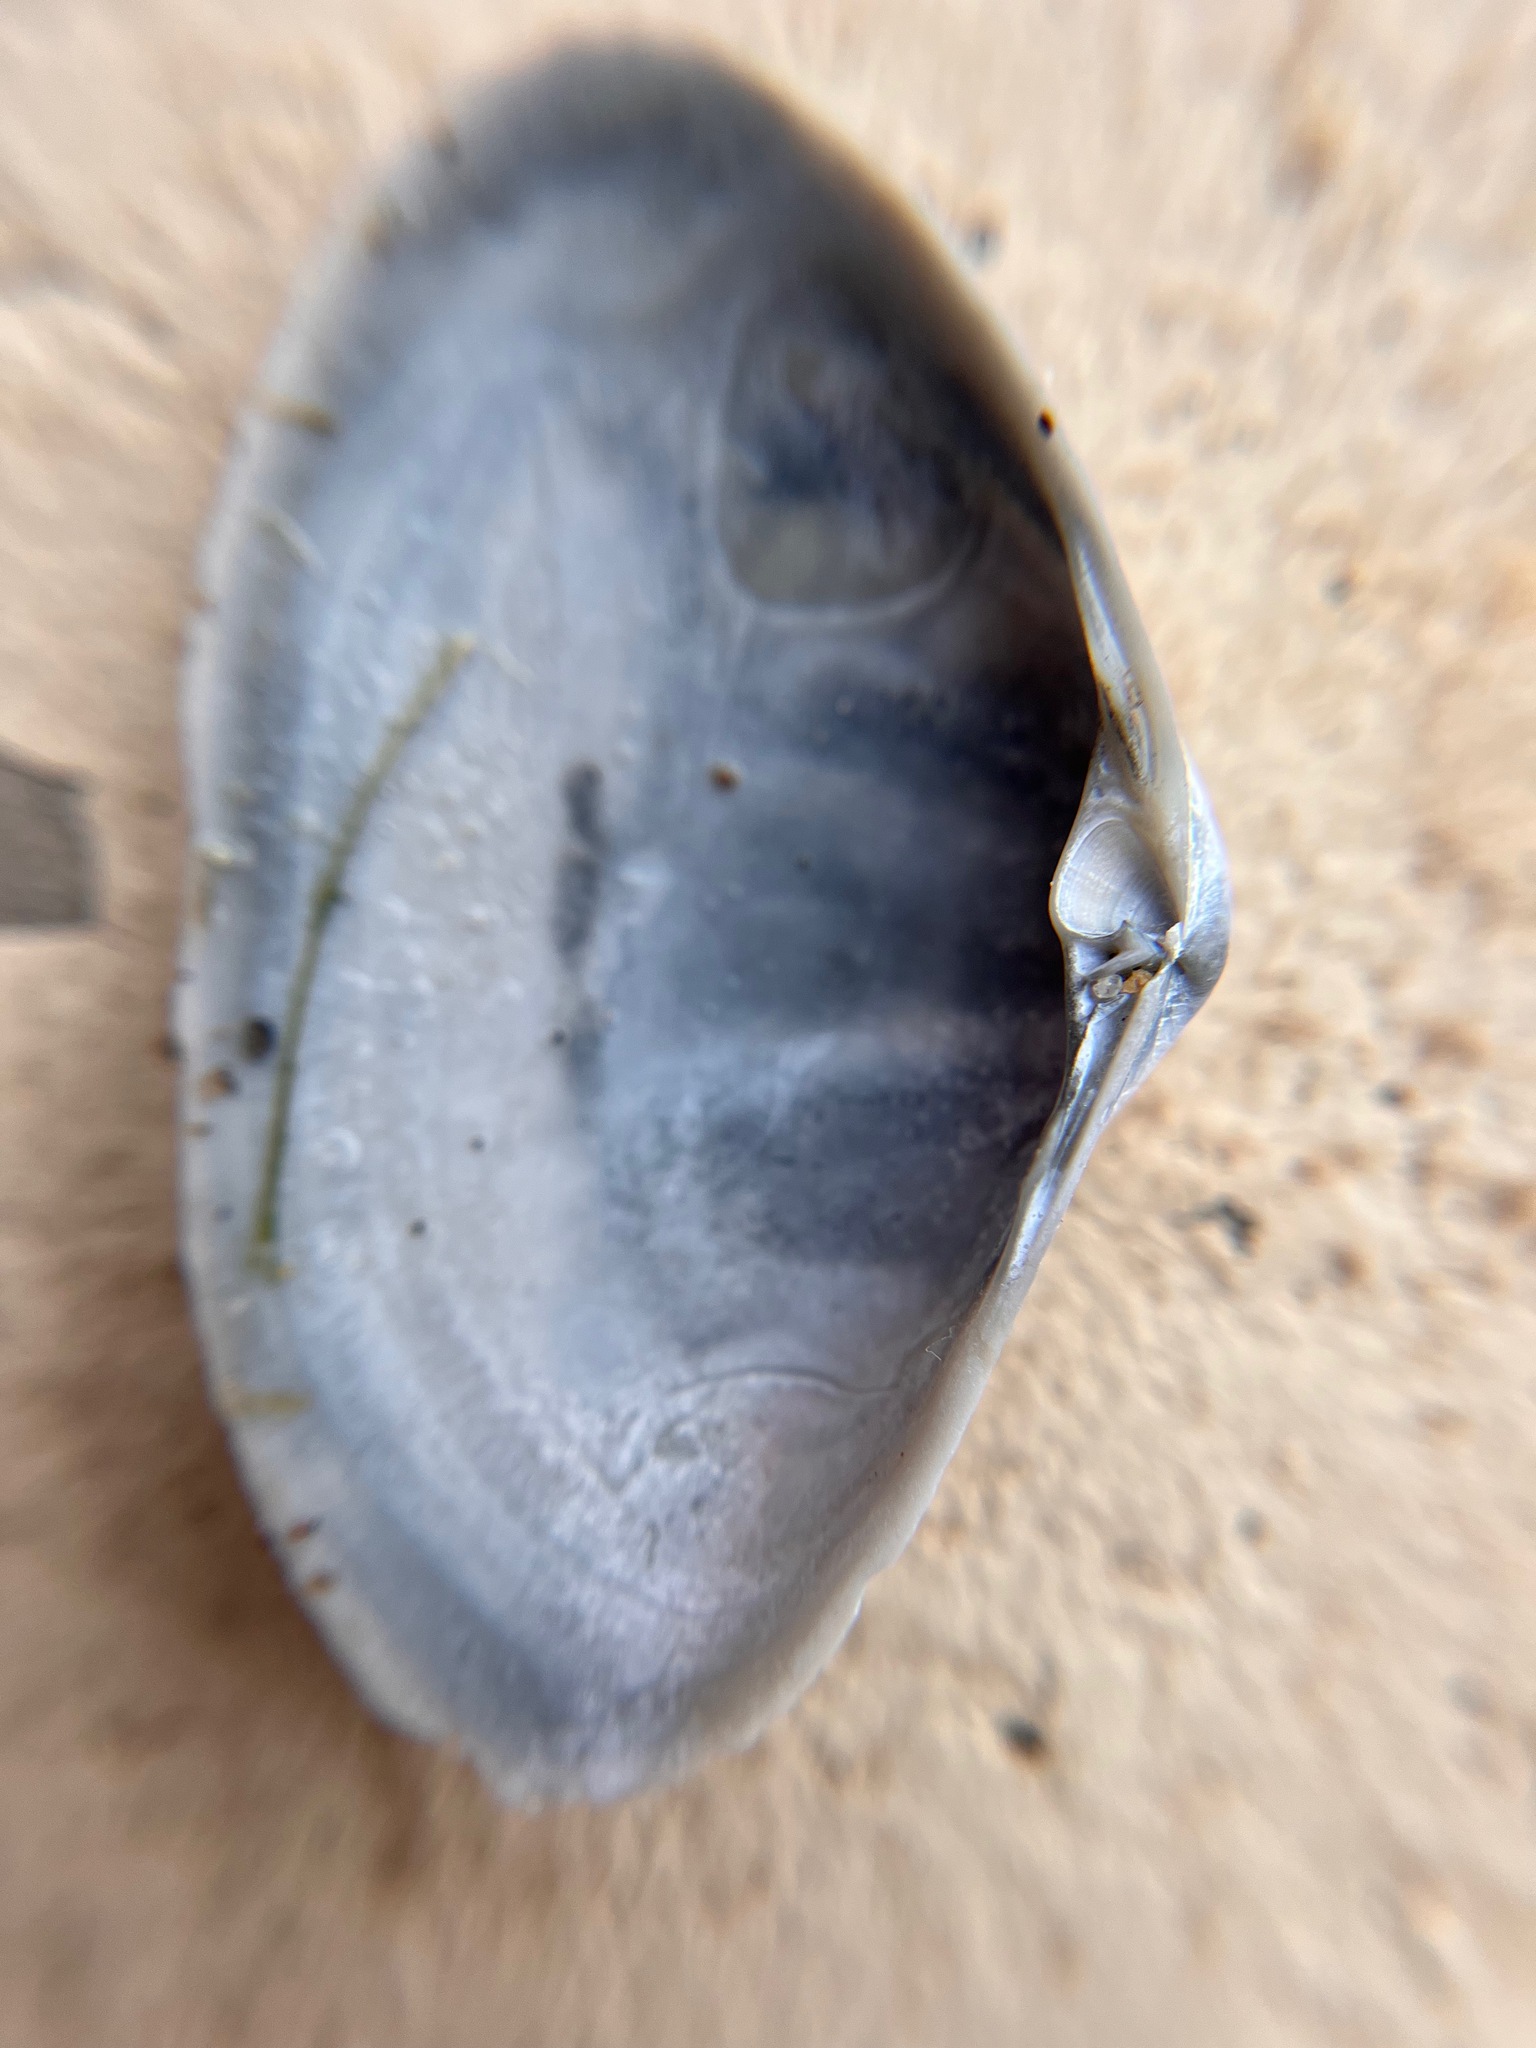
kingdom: Animalia
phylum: Mollusca
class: Bivalvia
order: Venerida
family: Mactridae
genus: Simomactra
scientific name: Simomactra falcata
